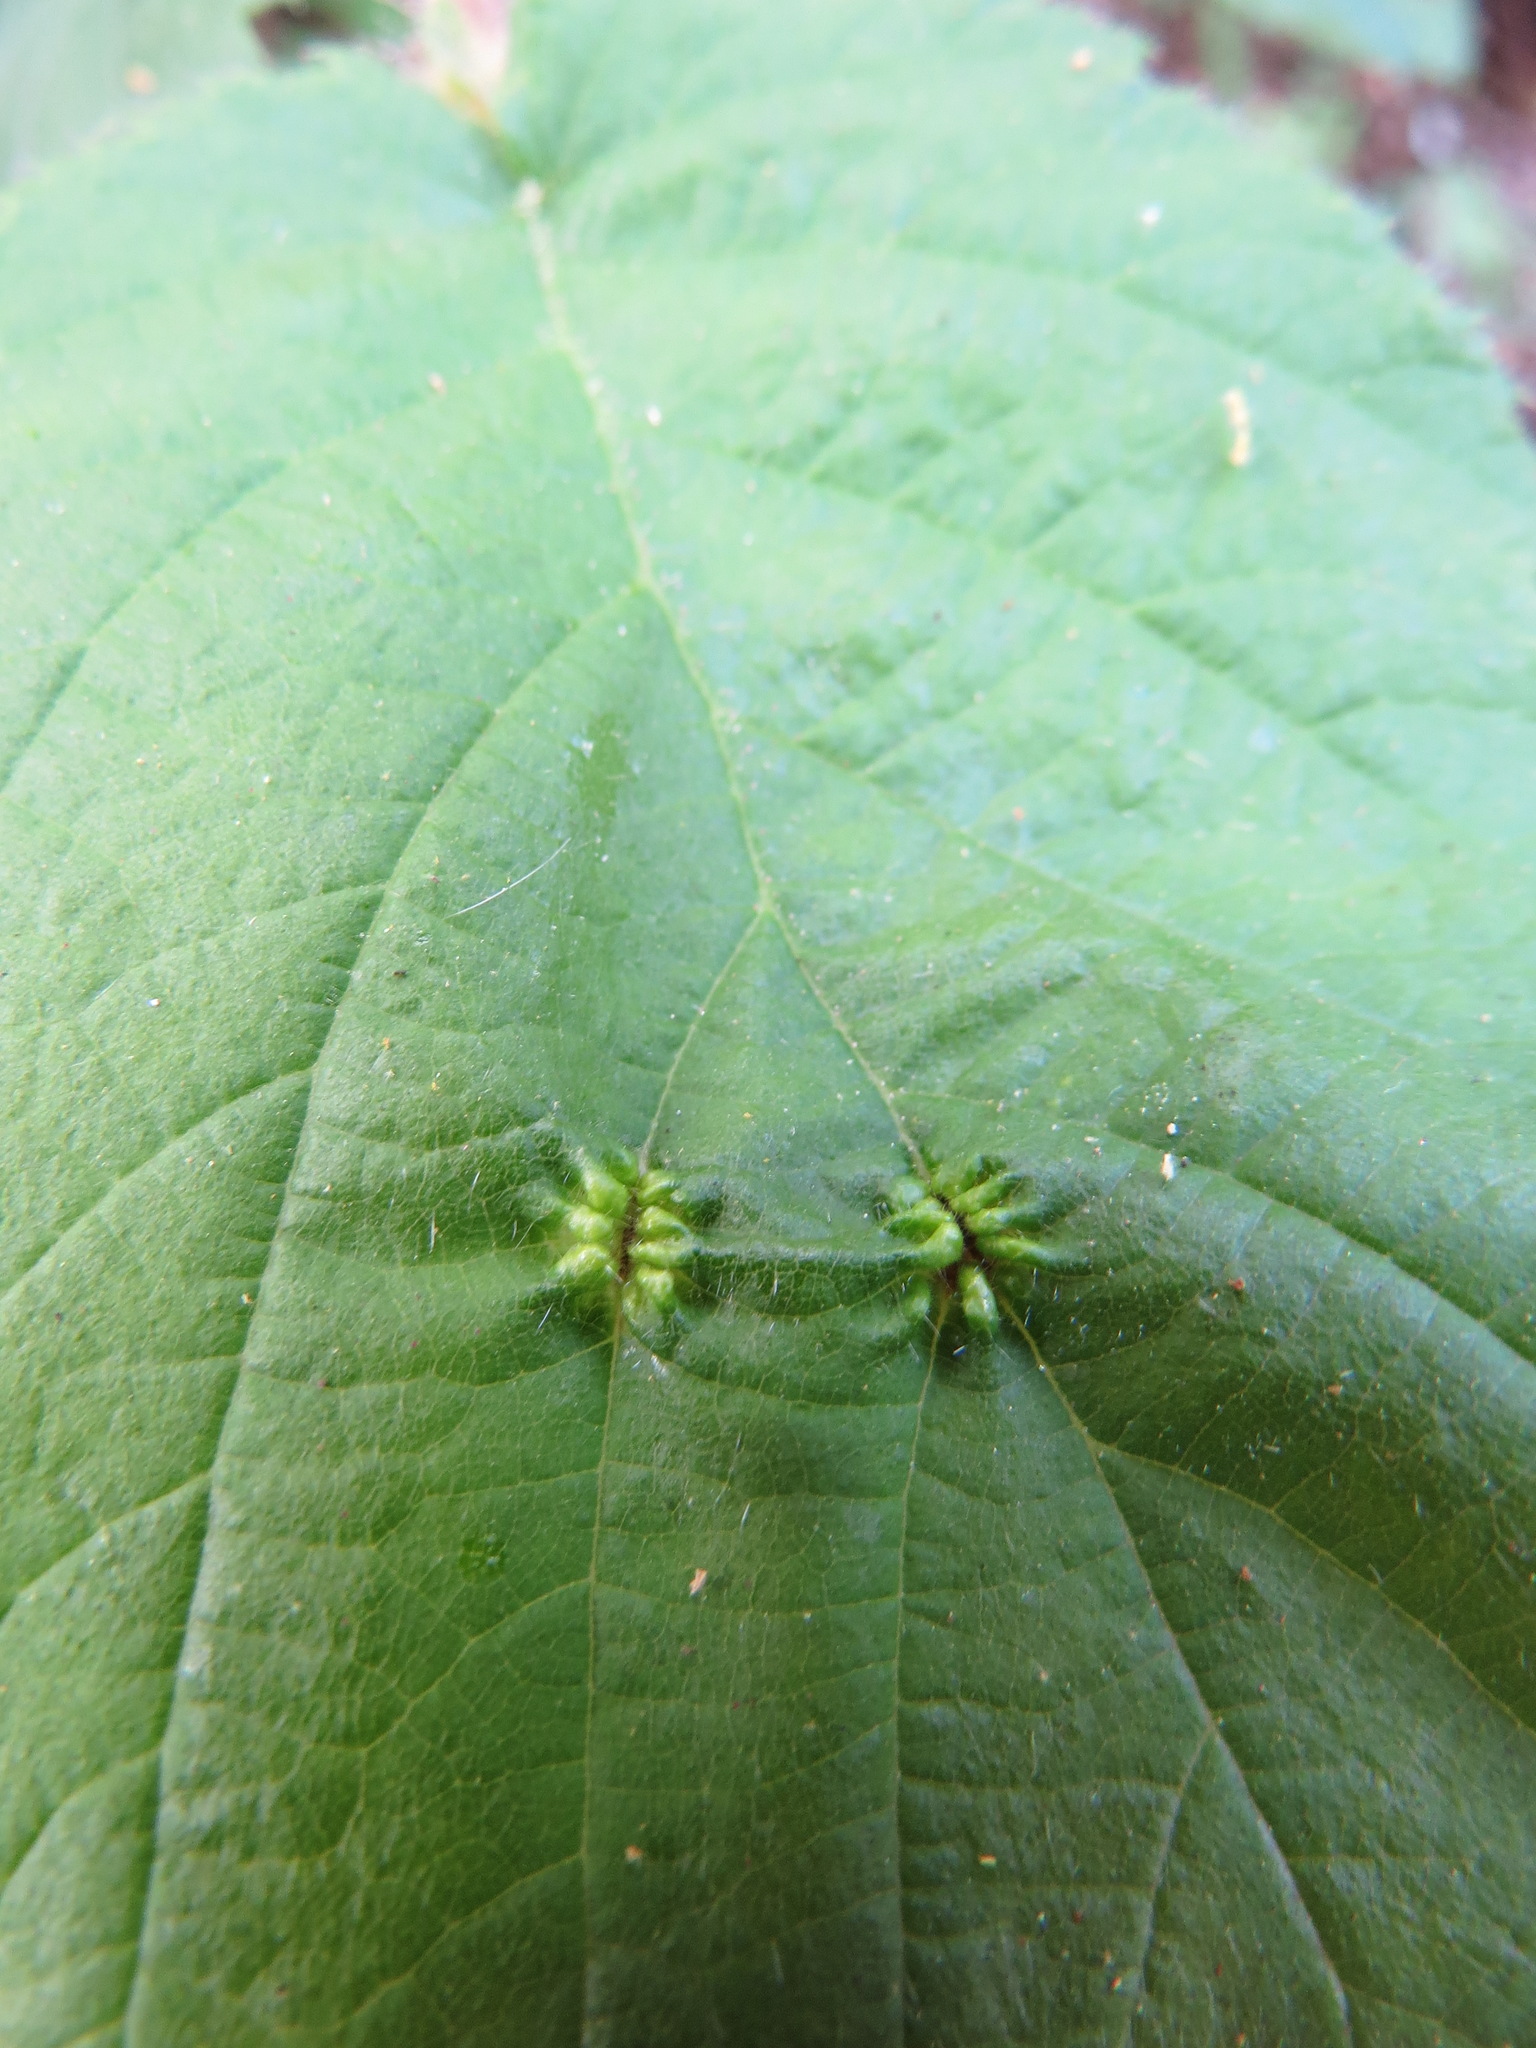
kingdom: Plantae
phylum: Tracheophyta
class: Magnoliopsida
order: Fagales
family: Betulaceae
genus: Corylus
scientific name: Corylus cornuta
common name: Beaked hazel
